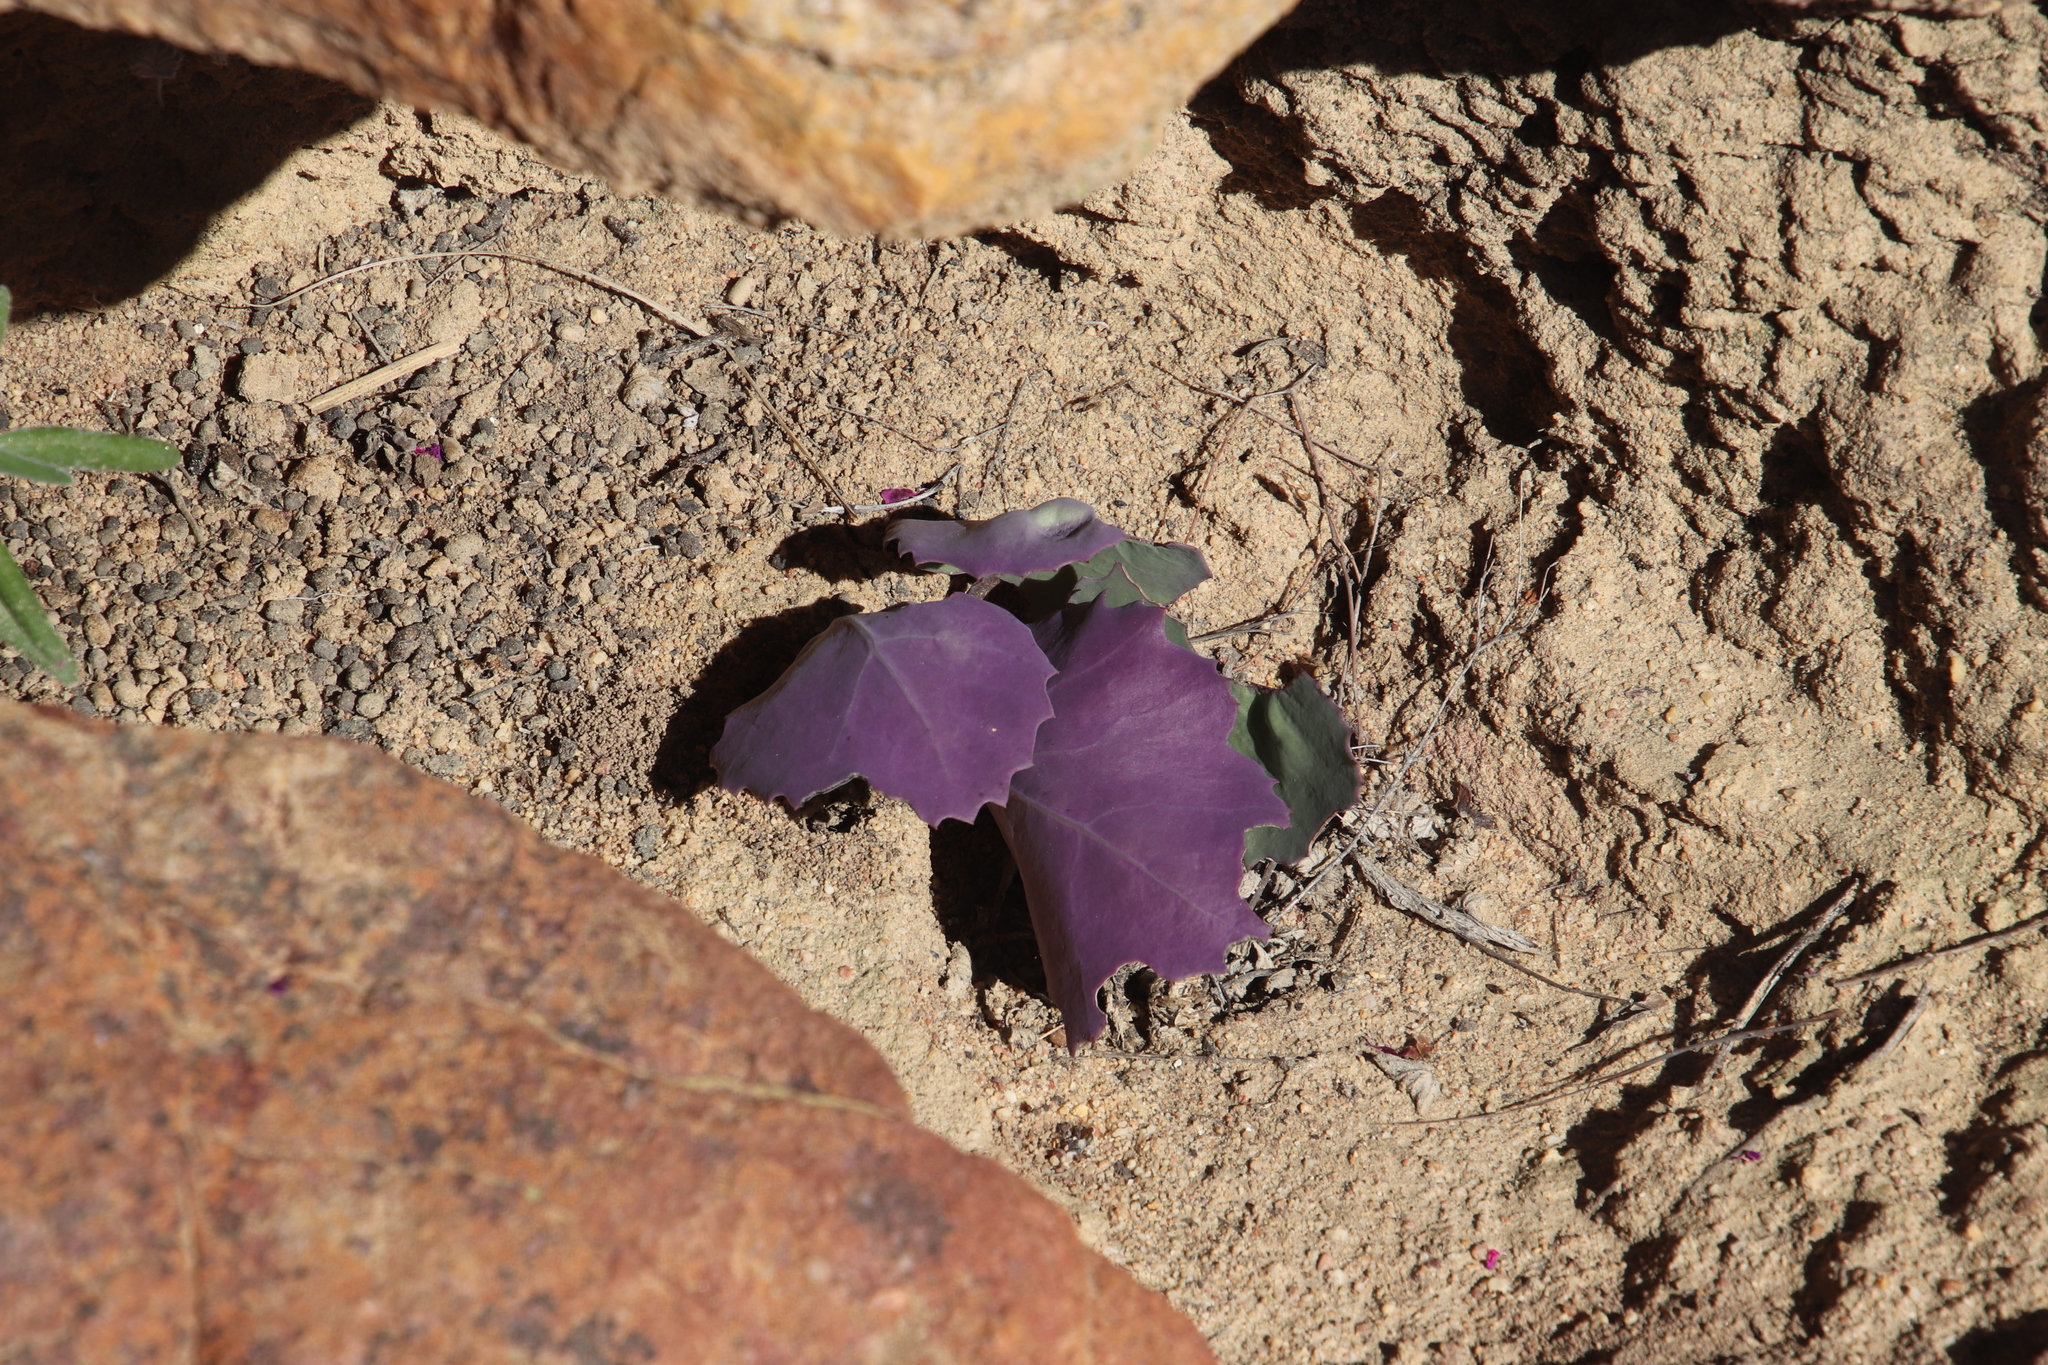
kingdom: Plantae
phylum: Tracheophyta
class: Magnoliopsida
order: Asterales
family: Asteraceae
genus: Othonna
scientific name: Othonna petiolaris
